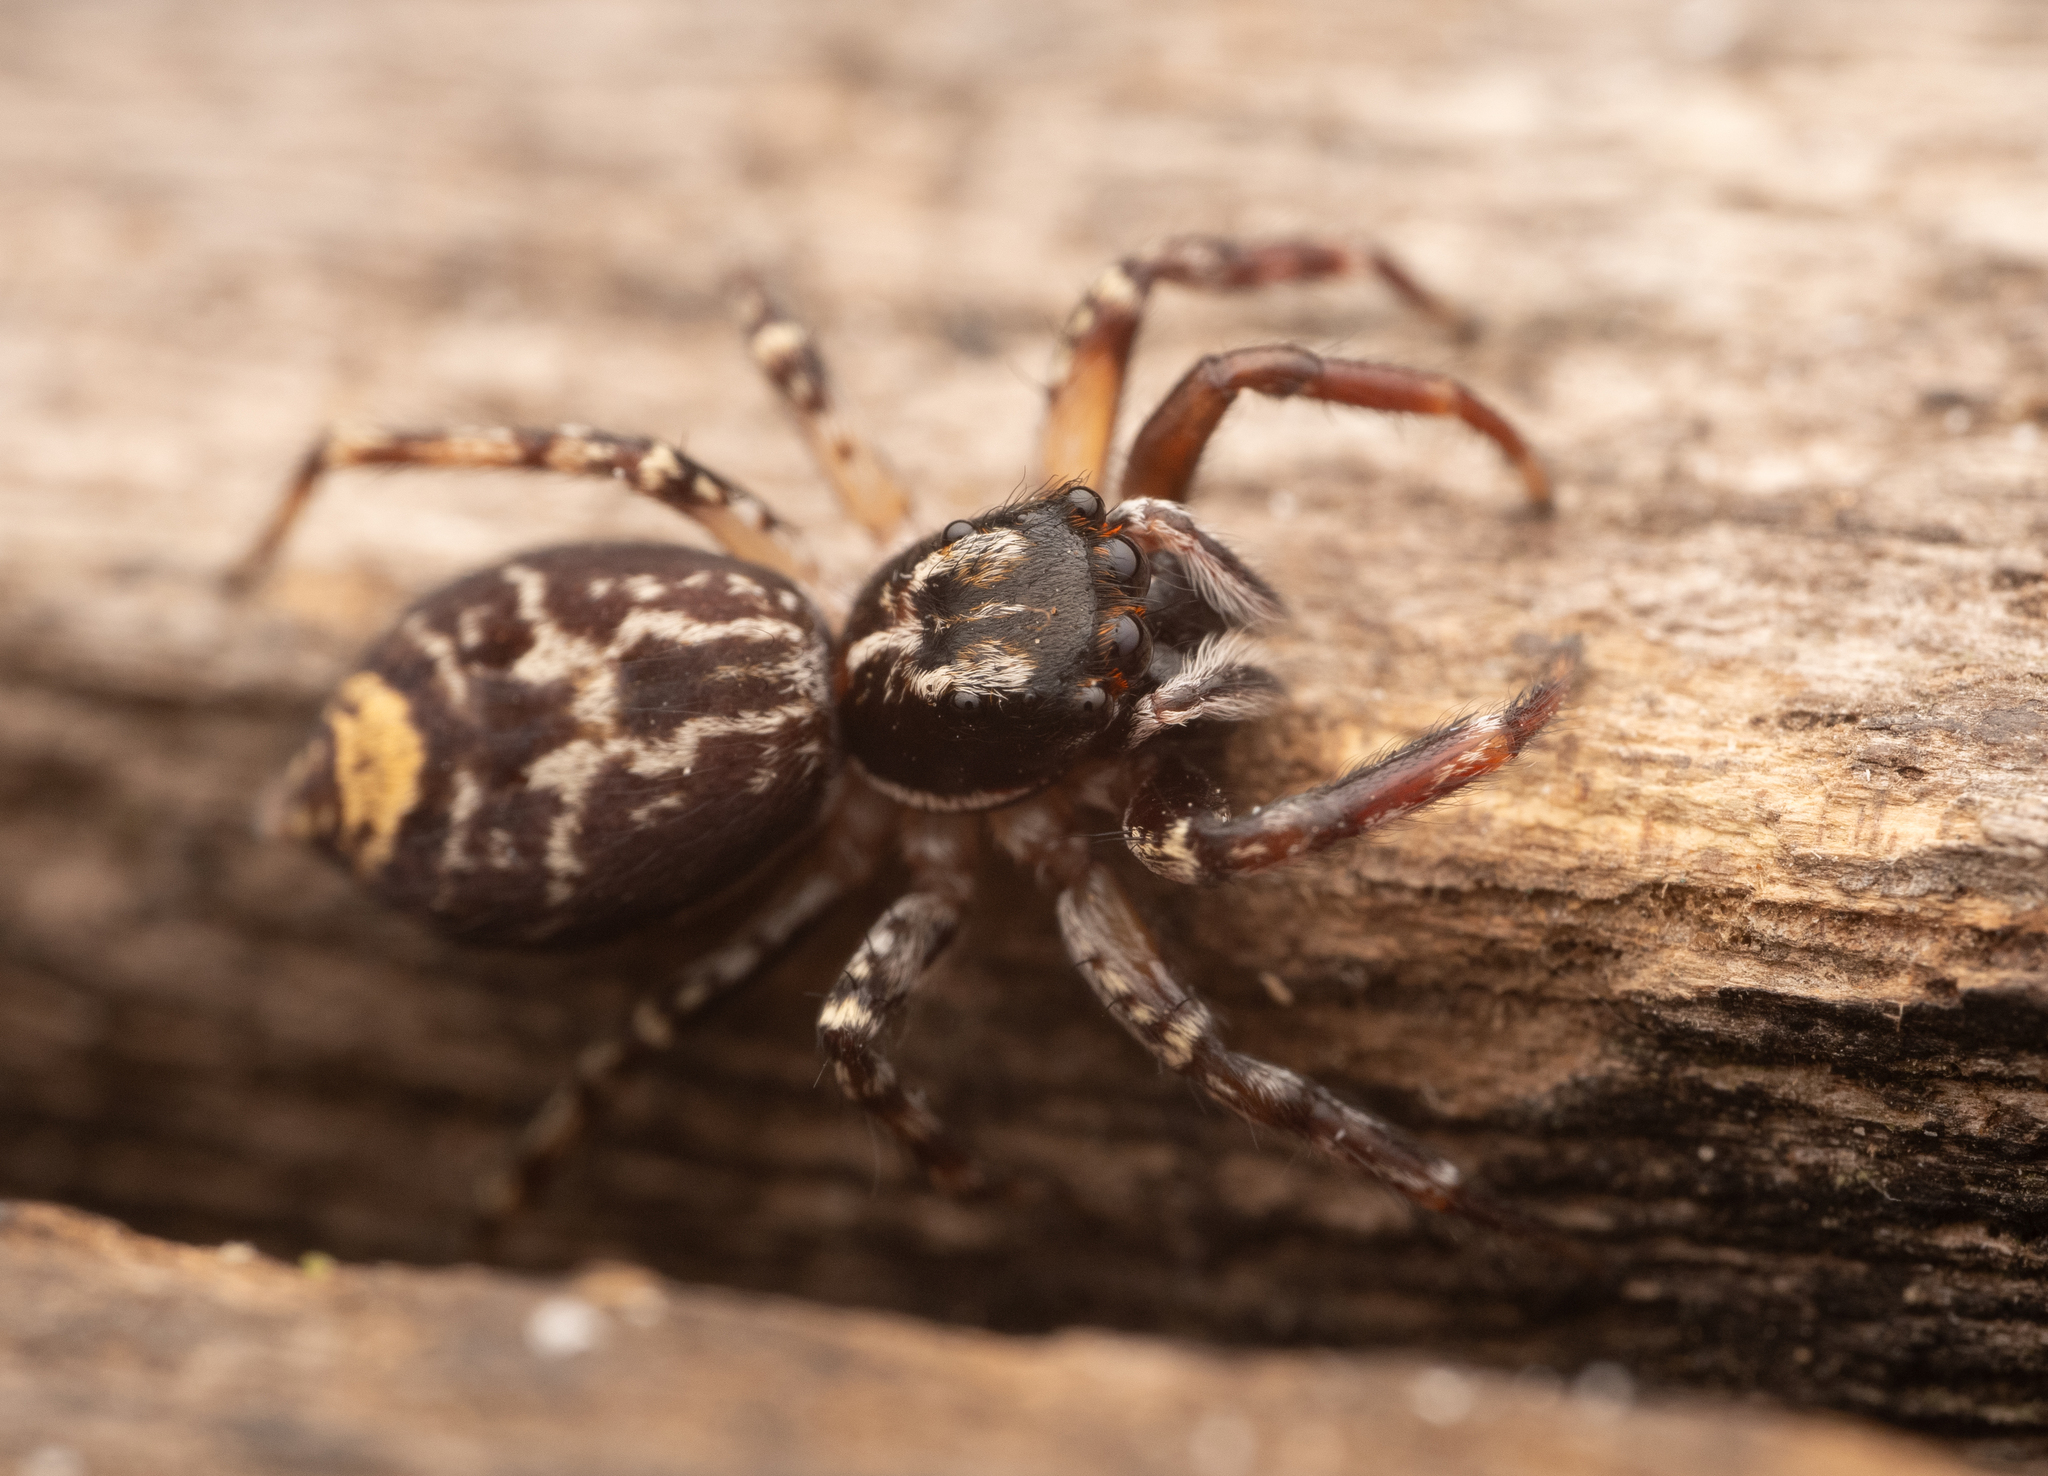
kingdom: Animalia
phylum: Arthropoda
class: Arachnida
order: Araneae
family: Salticidae
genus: Astia
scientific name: Astia
